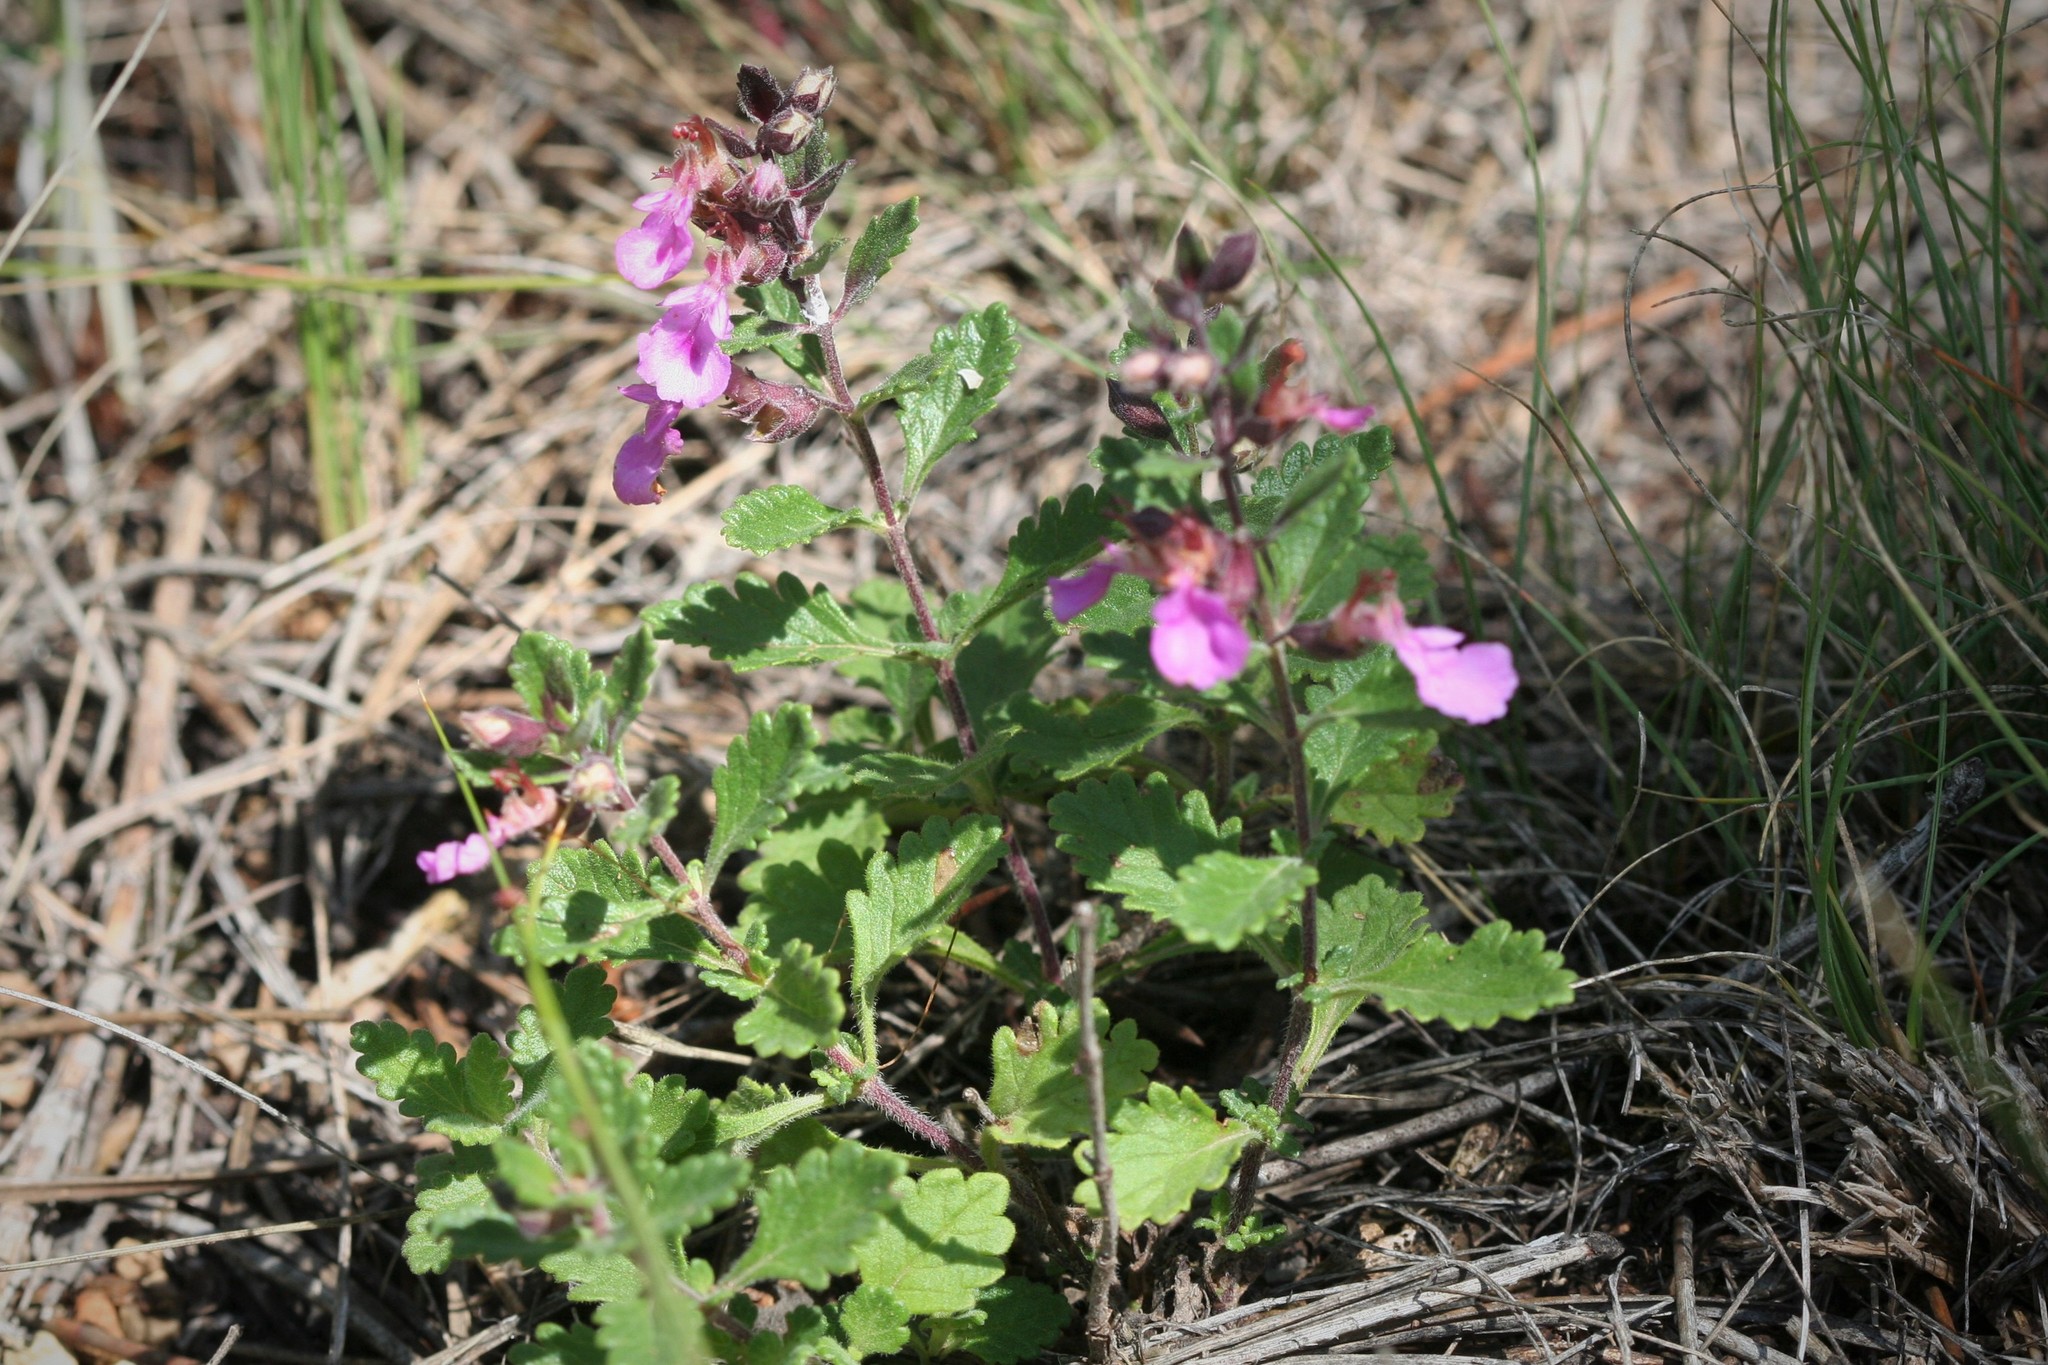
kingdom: Plantae
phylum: Tracheophyta
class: Magnoliopsida
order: Lamiales
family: Lamiaceae
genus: Teucrium
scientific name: Teucrium chamaedrys
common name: Wall germander
